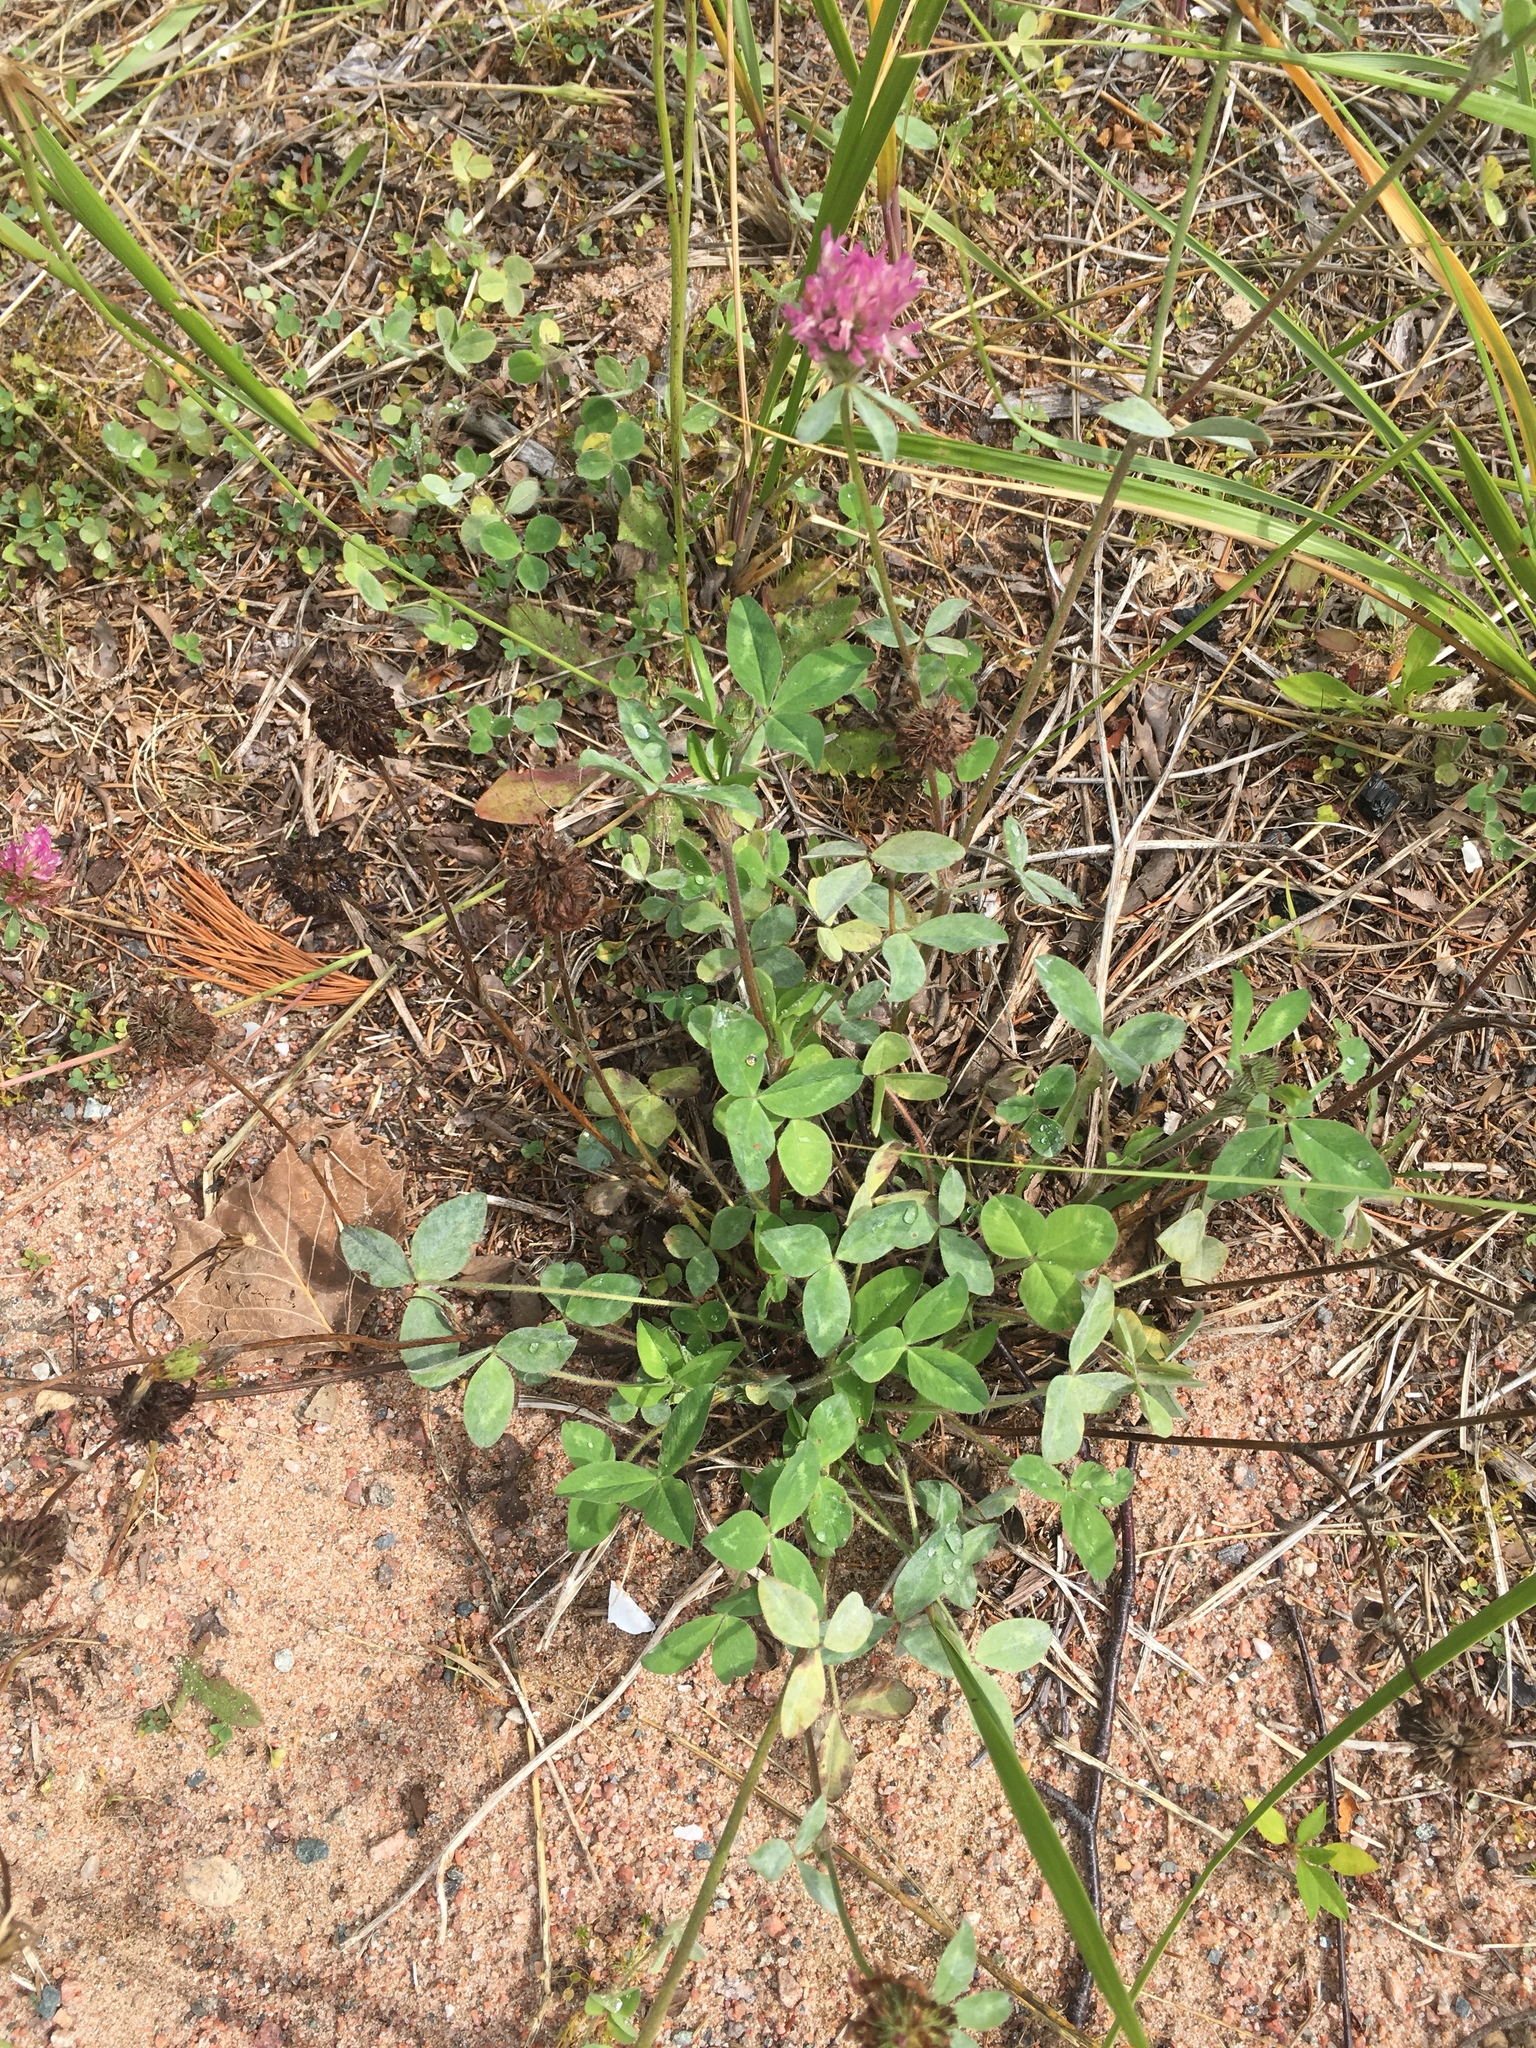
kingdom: Plantae
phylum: Tracheophyta
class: Magnoliopsida
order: Fabales
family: Fabaceae
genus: Trifolium
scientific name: Trifolium pratense
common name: Red clover
